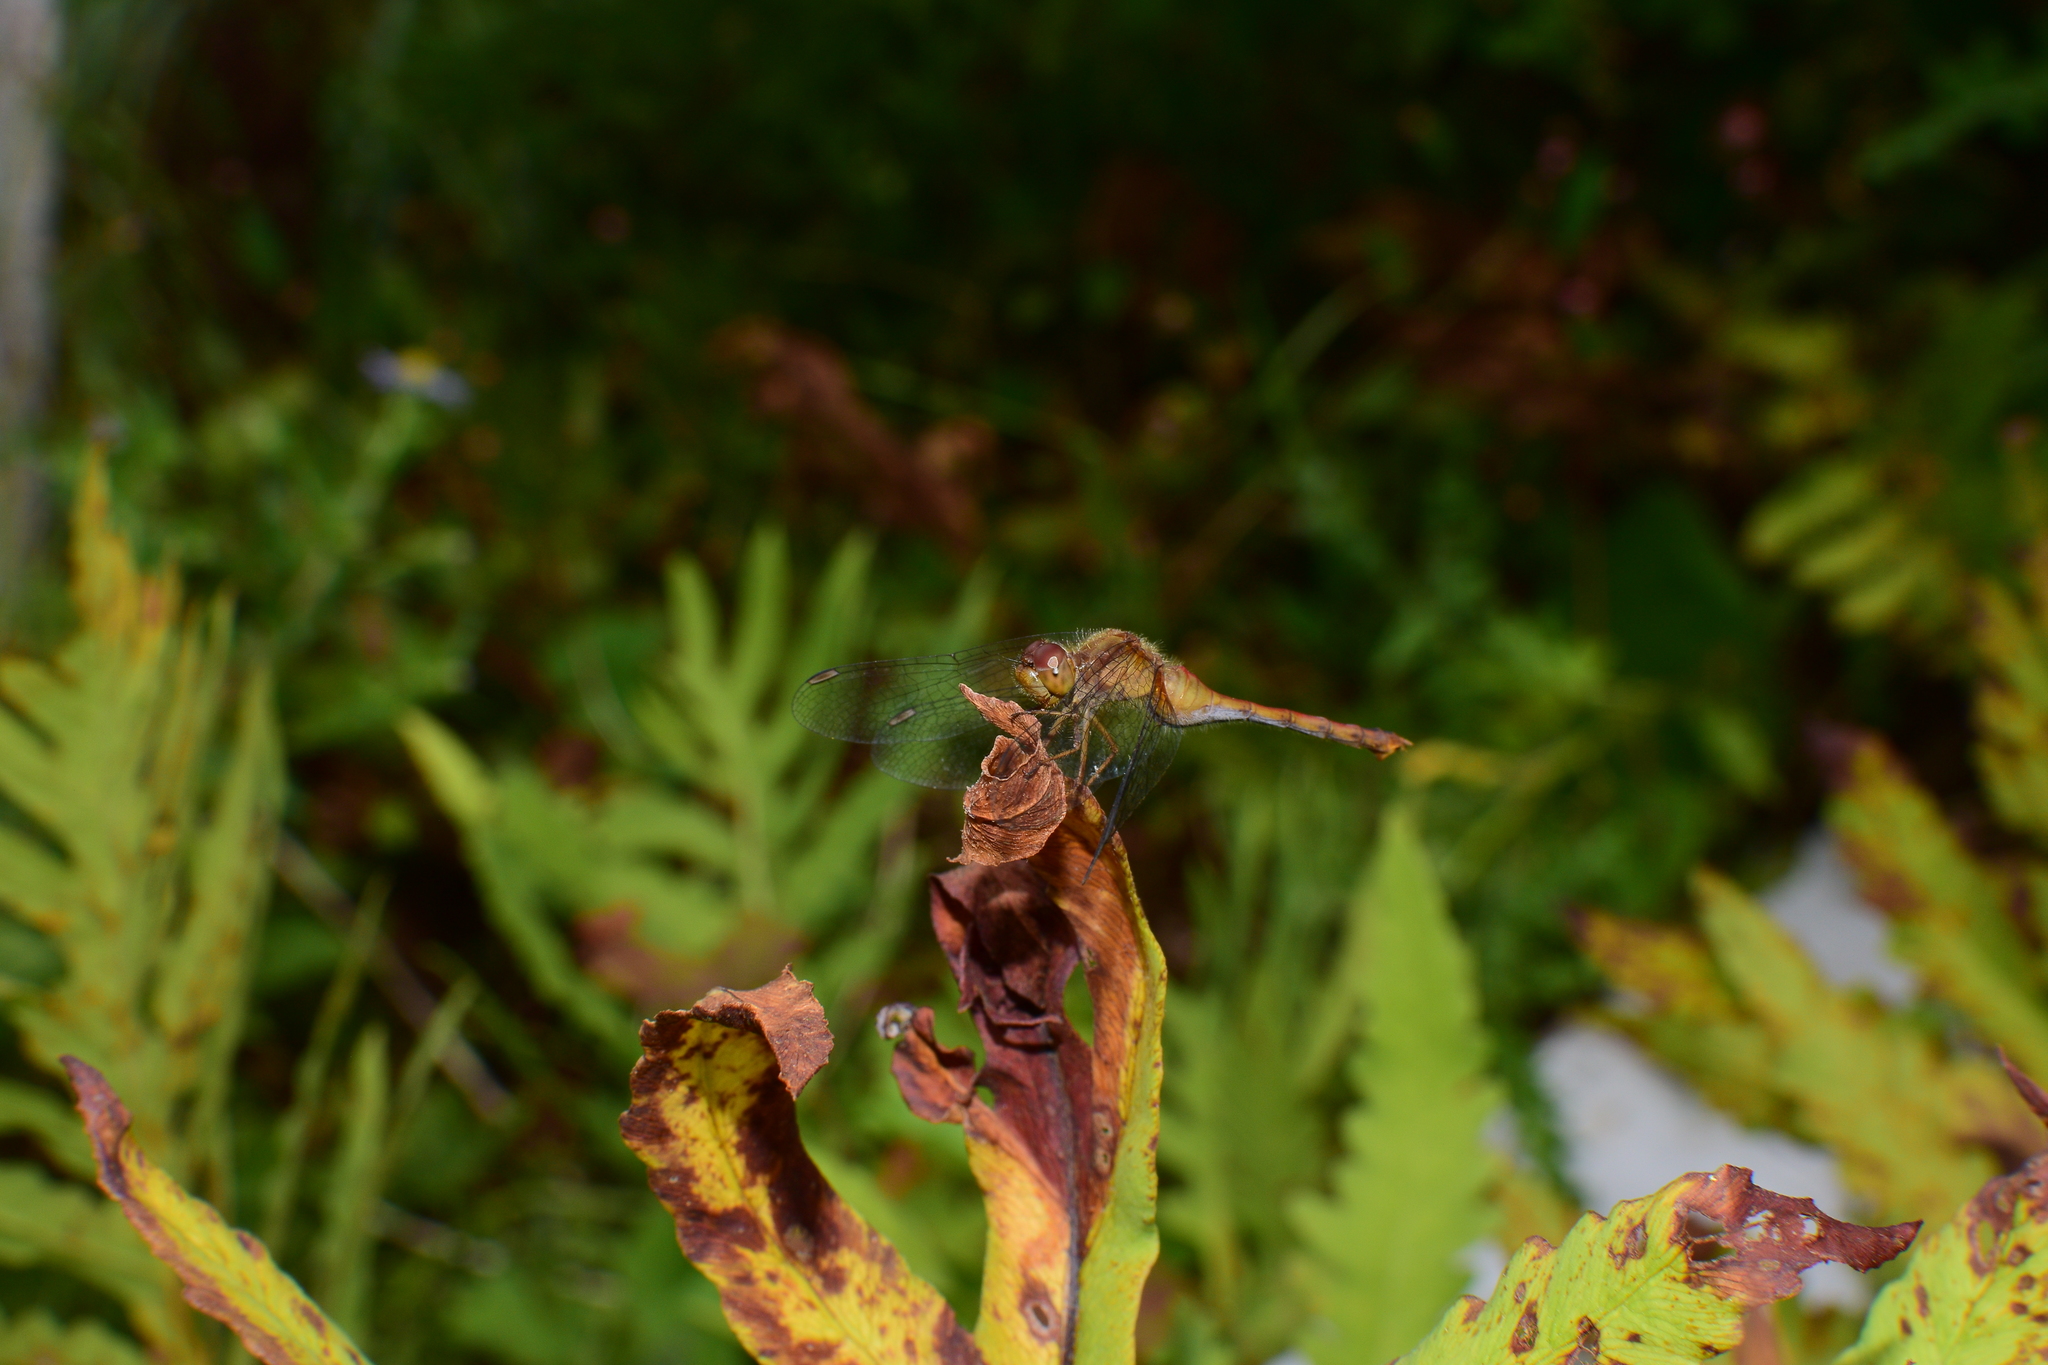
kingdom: Animalia
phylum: Arthropoda
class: Insecta
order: Odonata
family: Libellulidae
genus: Sympetrum
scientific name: Sympetrum vicinum
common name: Autumn meadowhawk
